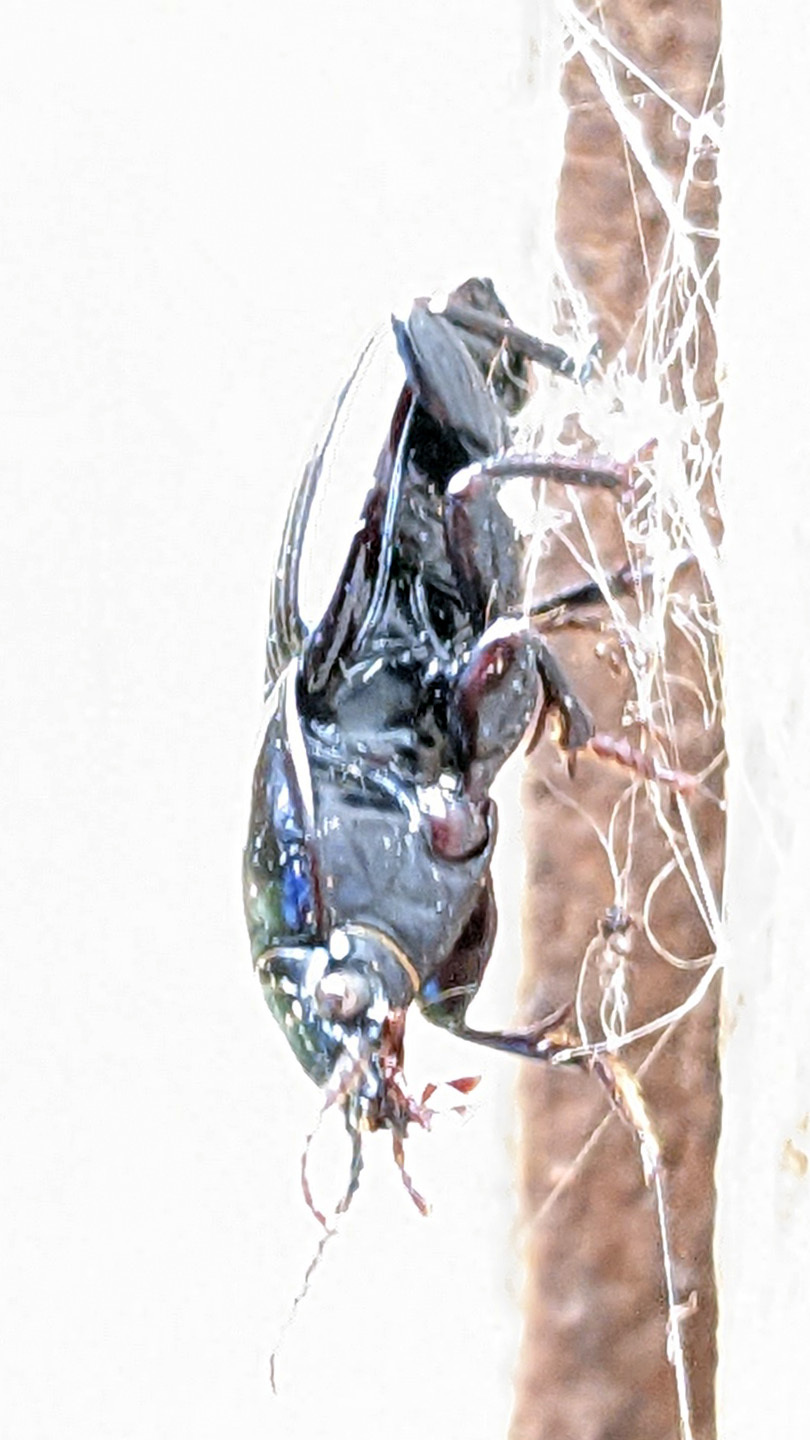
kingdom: Animalia
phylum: Arthropoda
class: Insecta
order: Coleoptera
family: Carabidae
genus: Myas
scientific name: Myas coracinus
